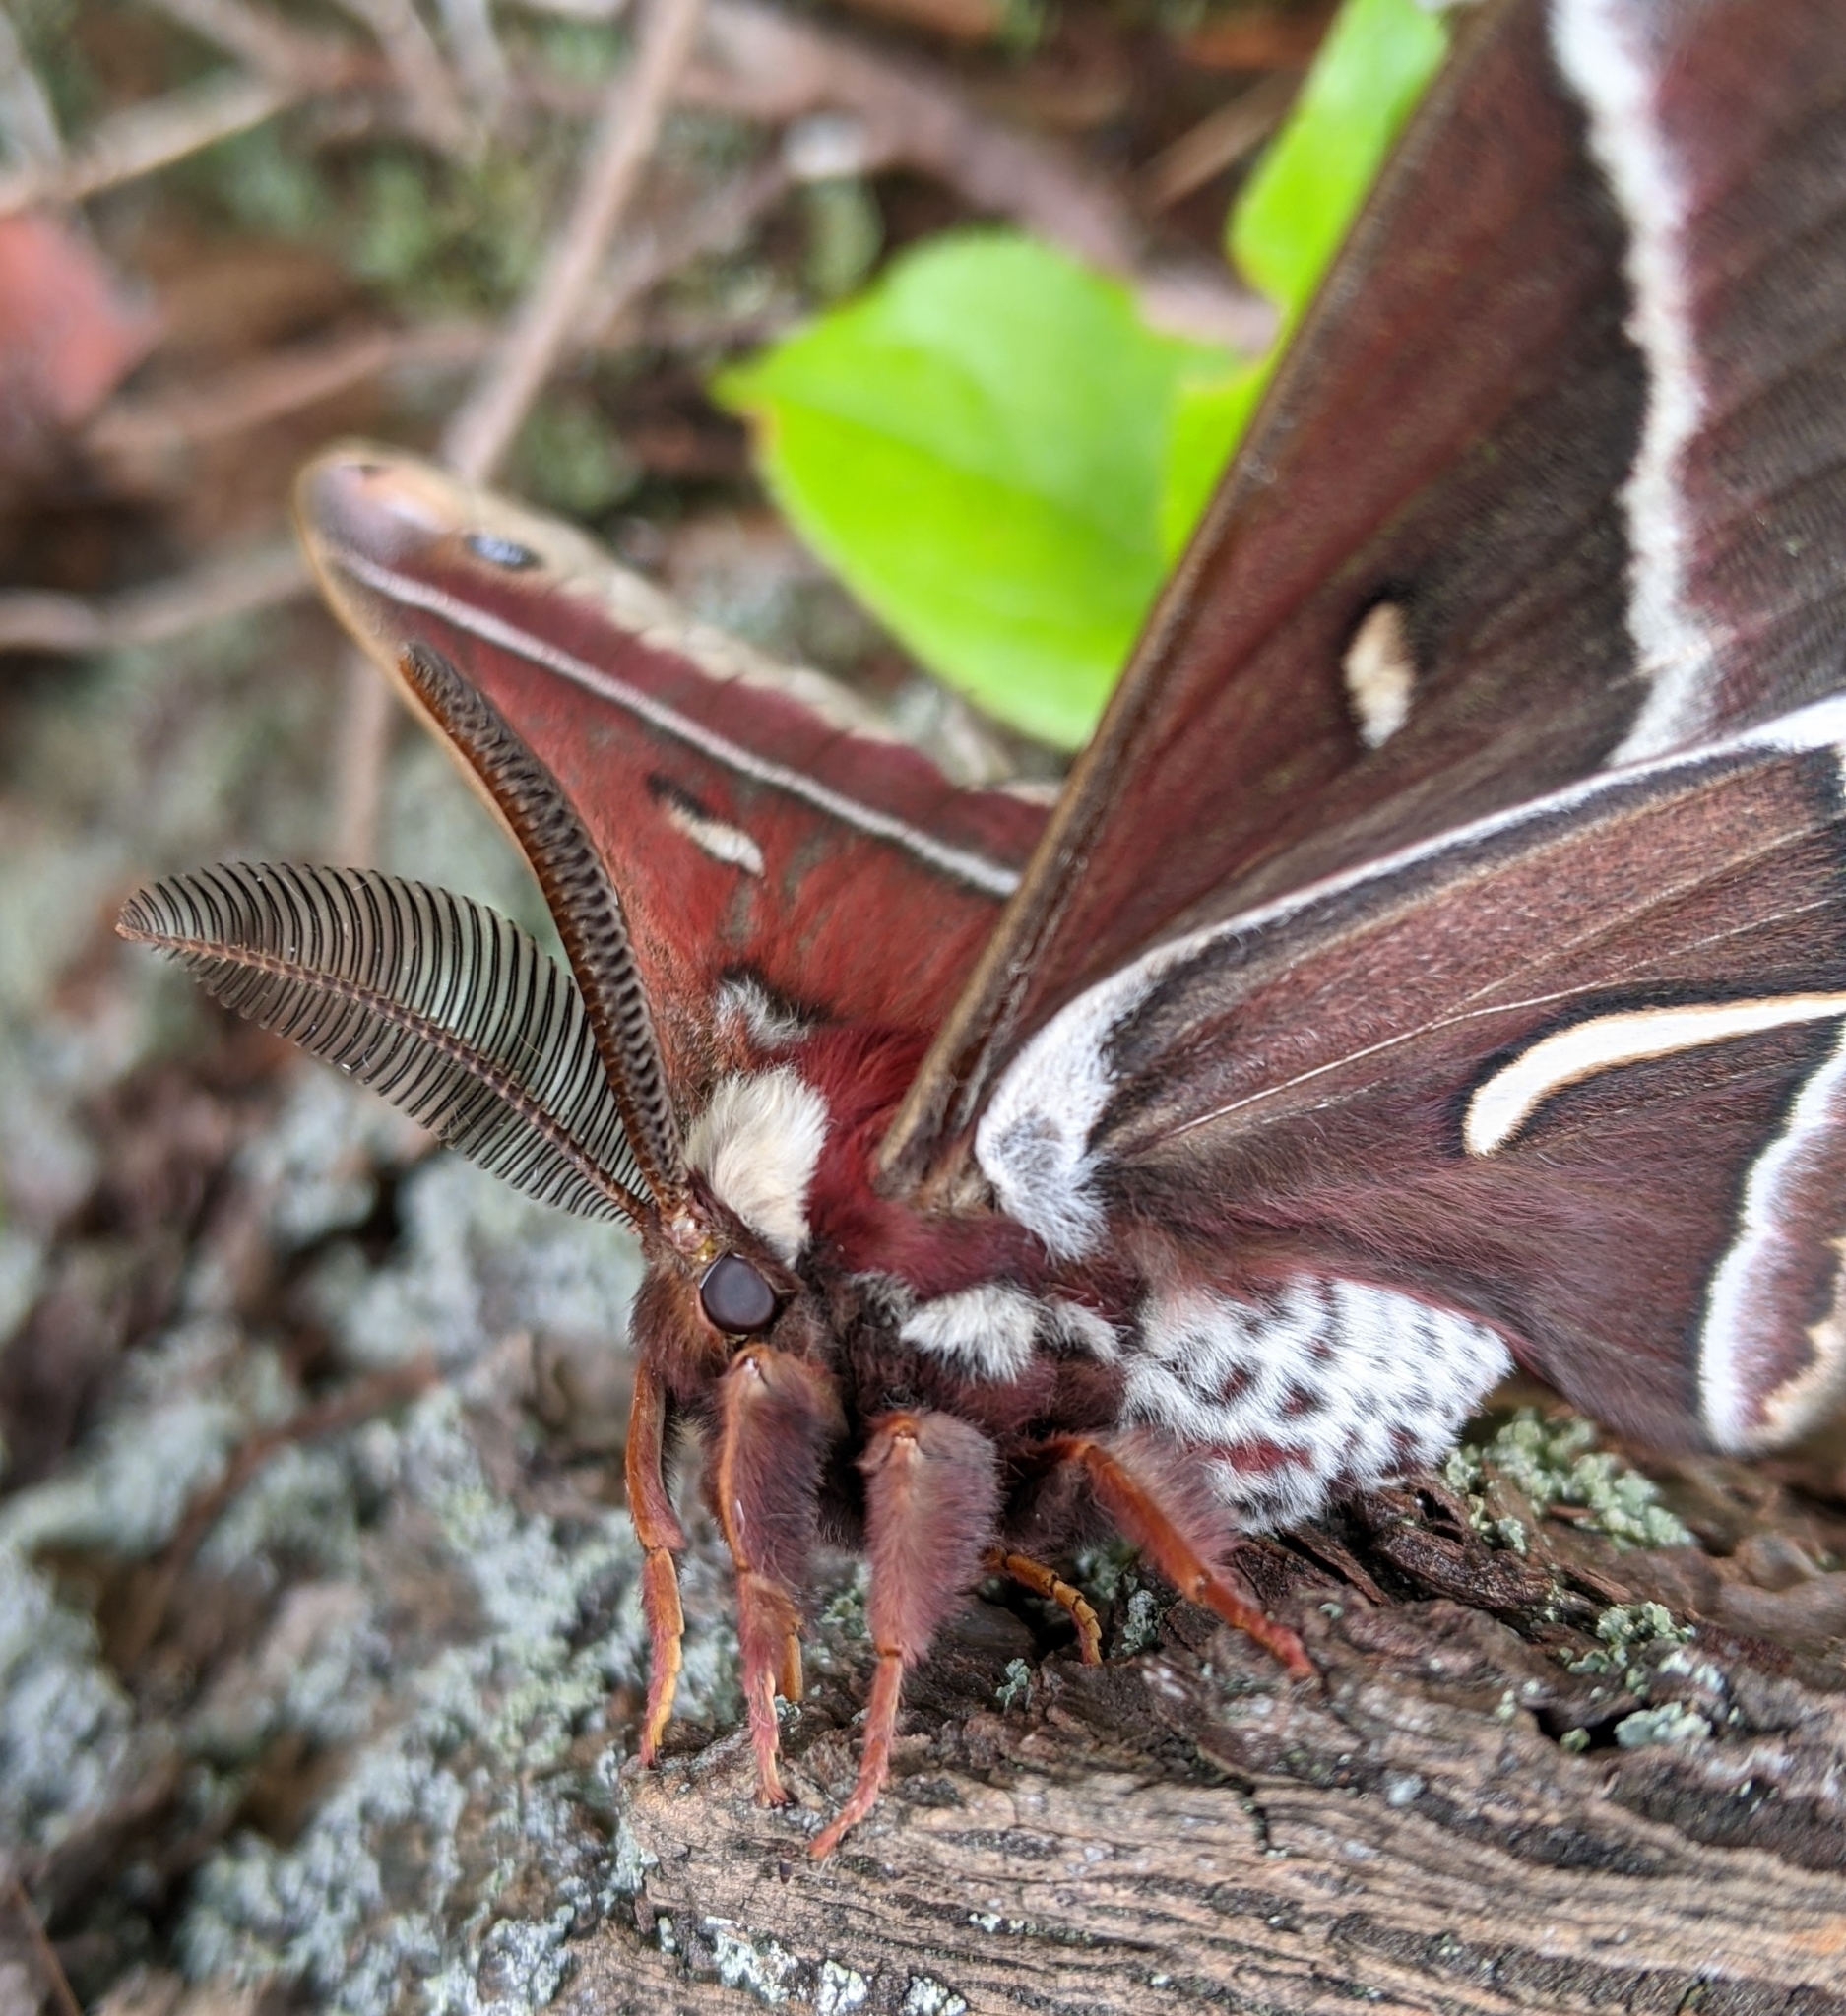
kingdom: Animalia
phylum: Arthropoda
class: Insecta
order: Lepidoptera
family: Saturniidae
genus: Hyalophora
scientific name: Hyalophora euryalus
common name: Ceanothus silkmoth
